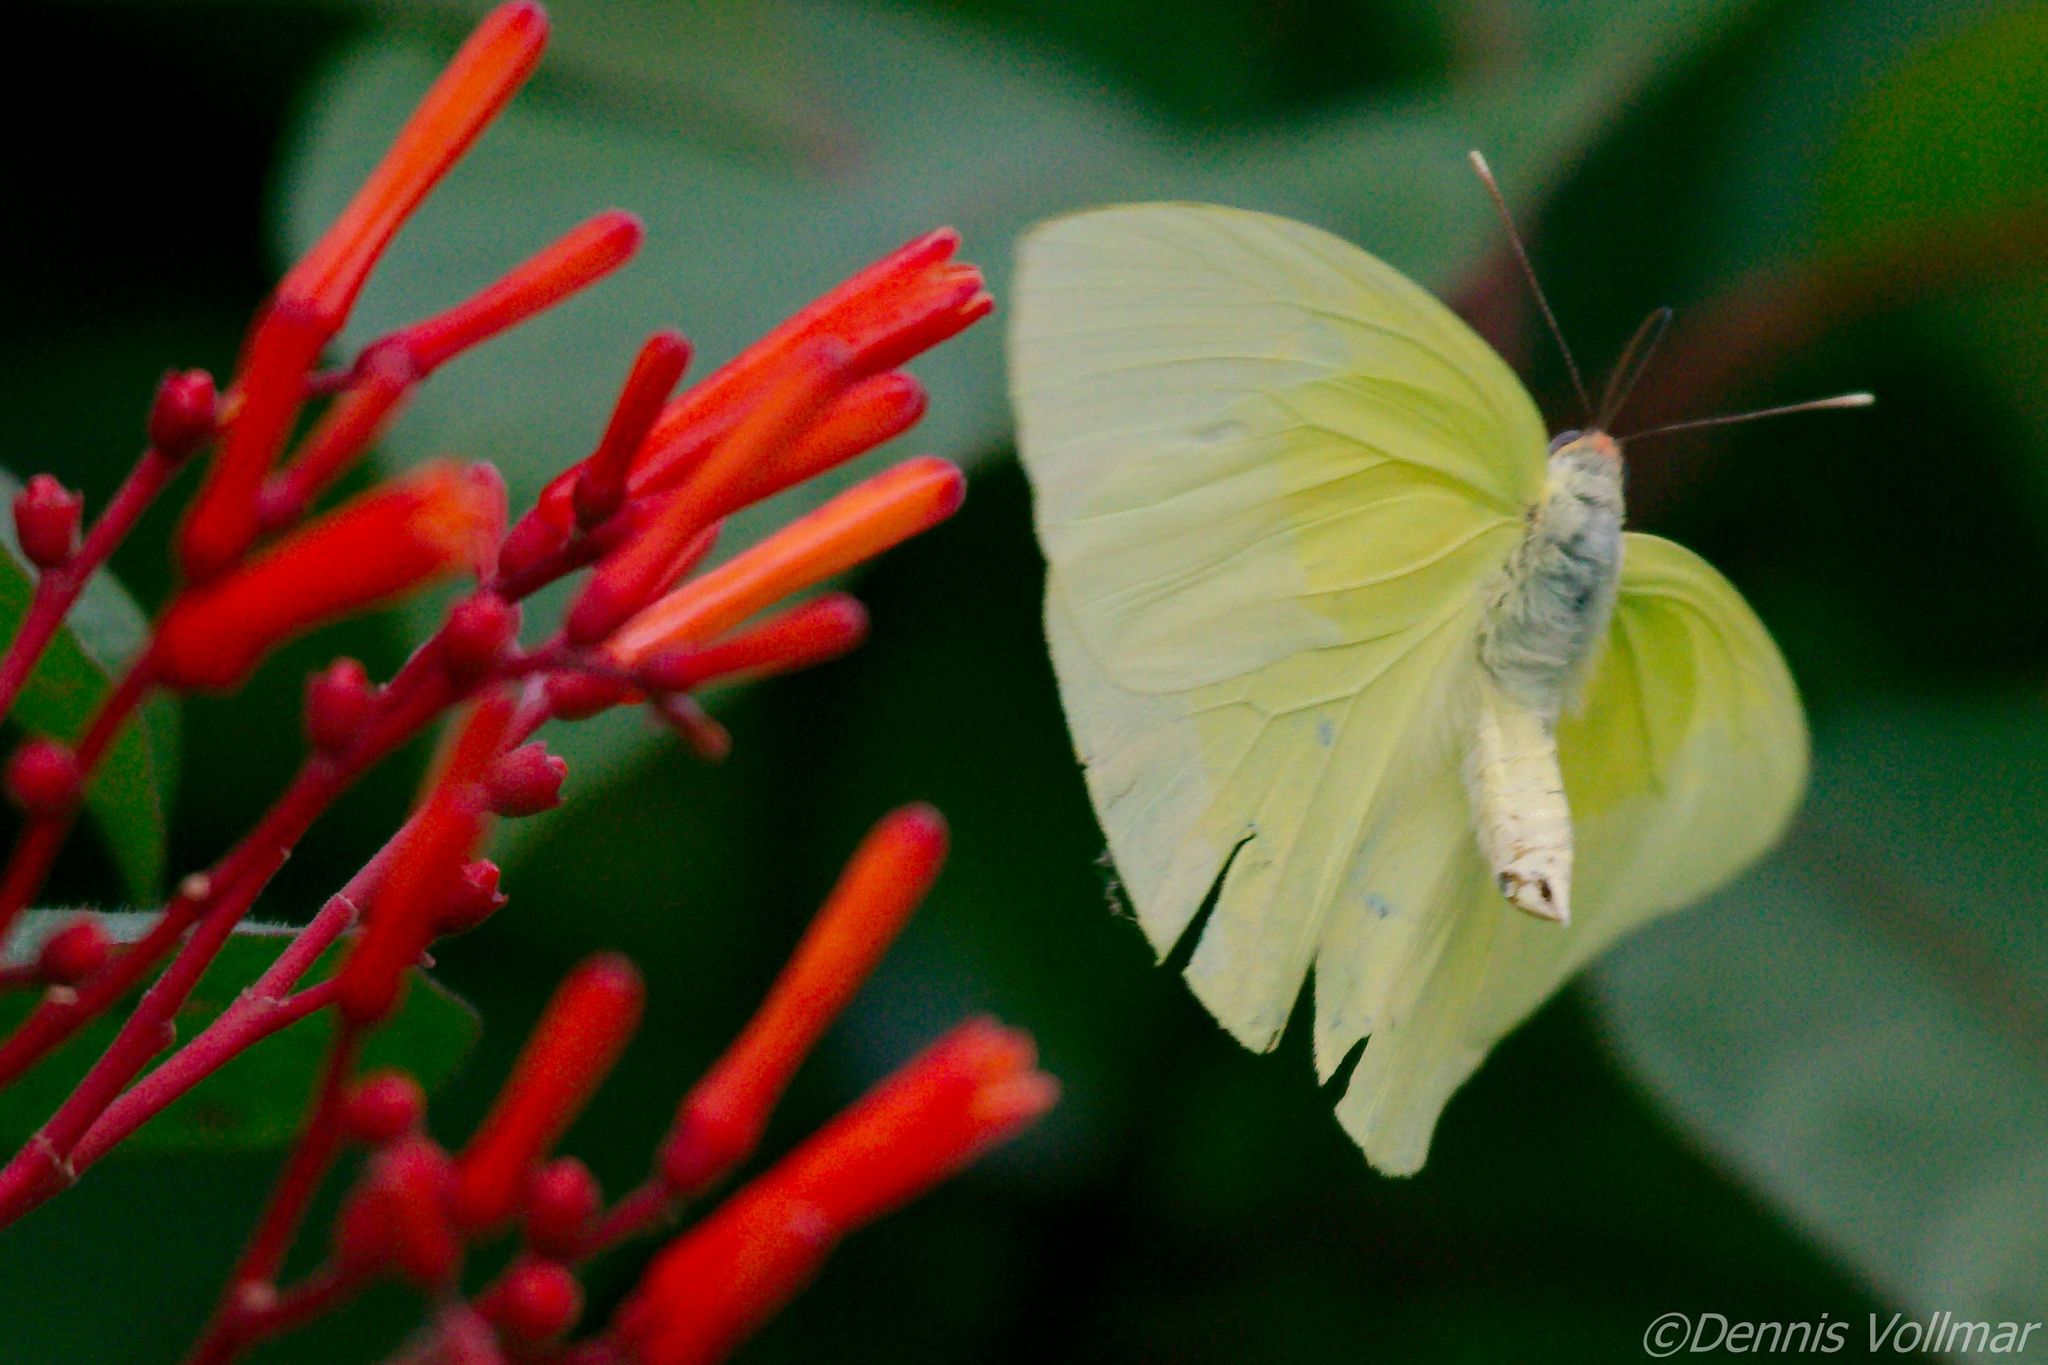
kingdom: Animalia
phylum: Arthropoda
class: Insecta
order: Lepidoptera
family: Pieridae
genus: Aphrissa
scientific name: Aphrissa statira
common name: Statira sulphur
